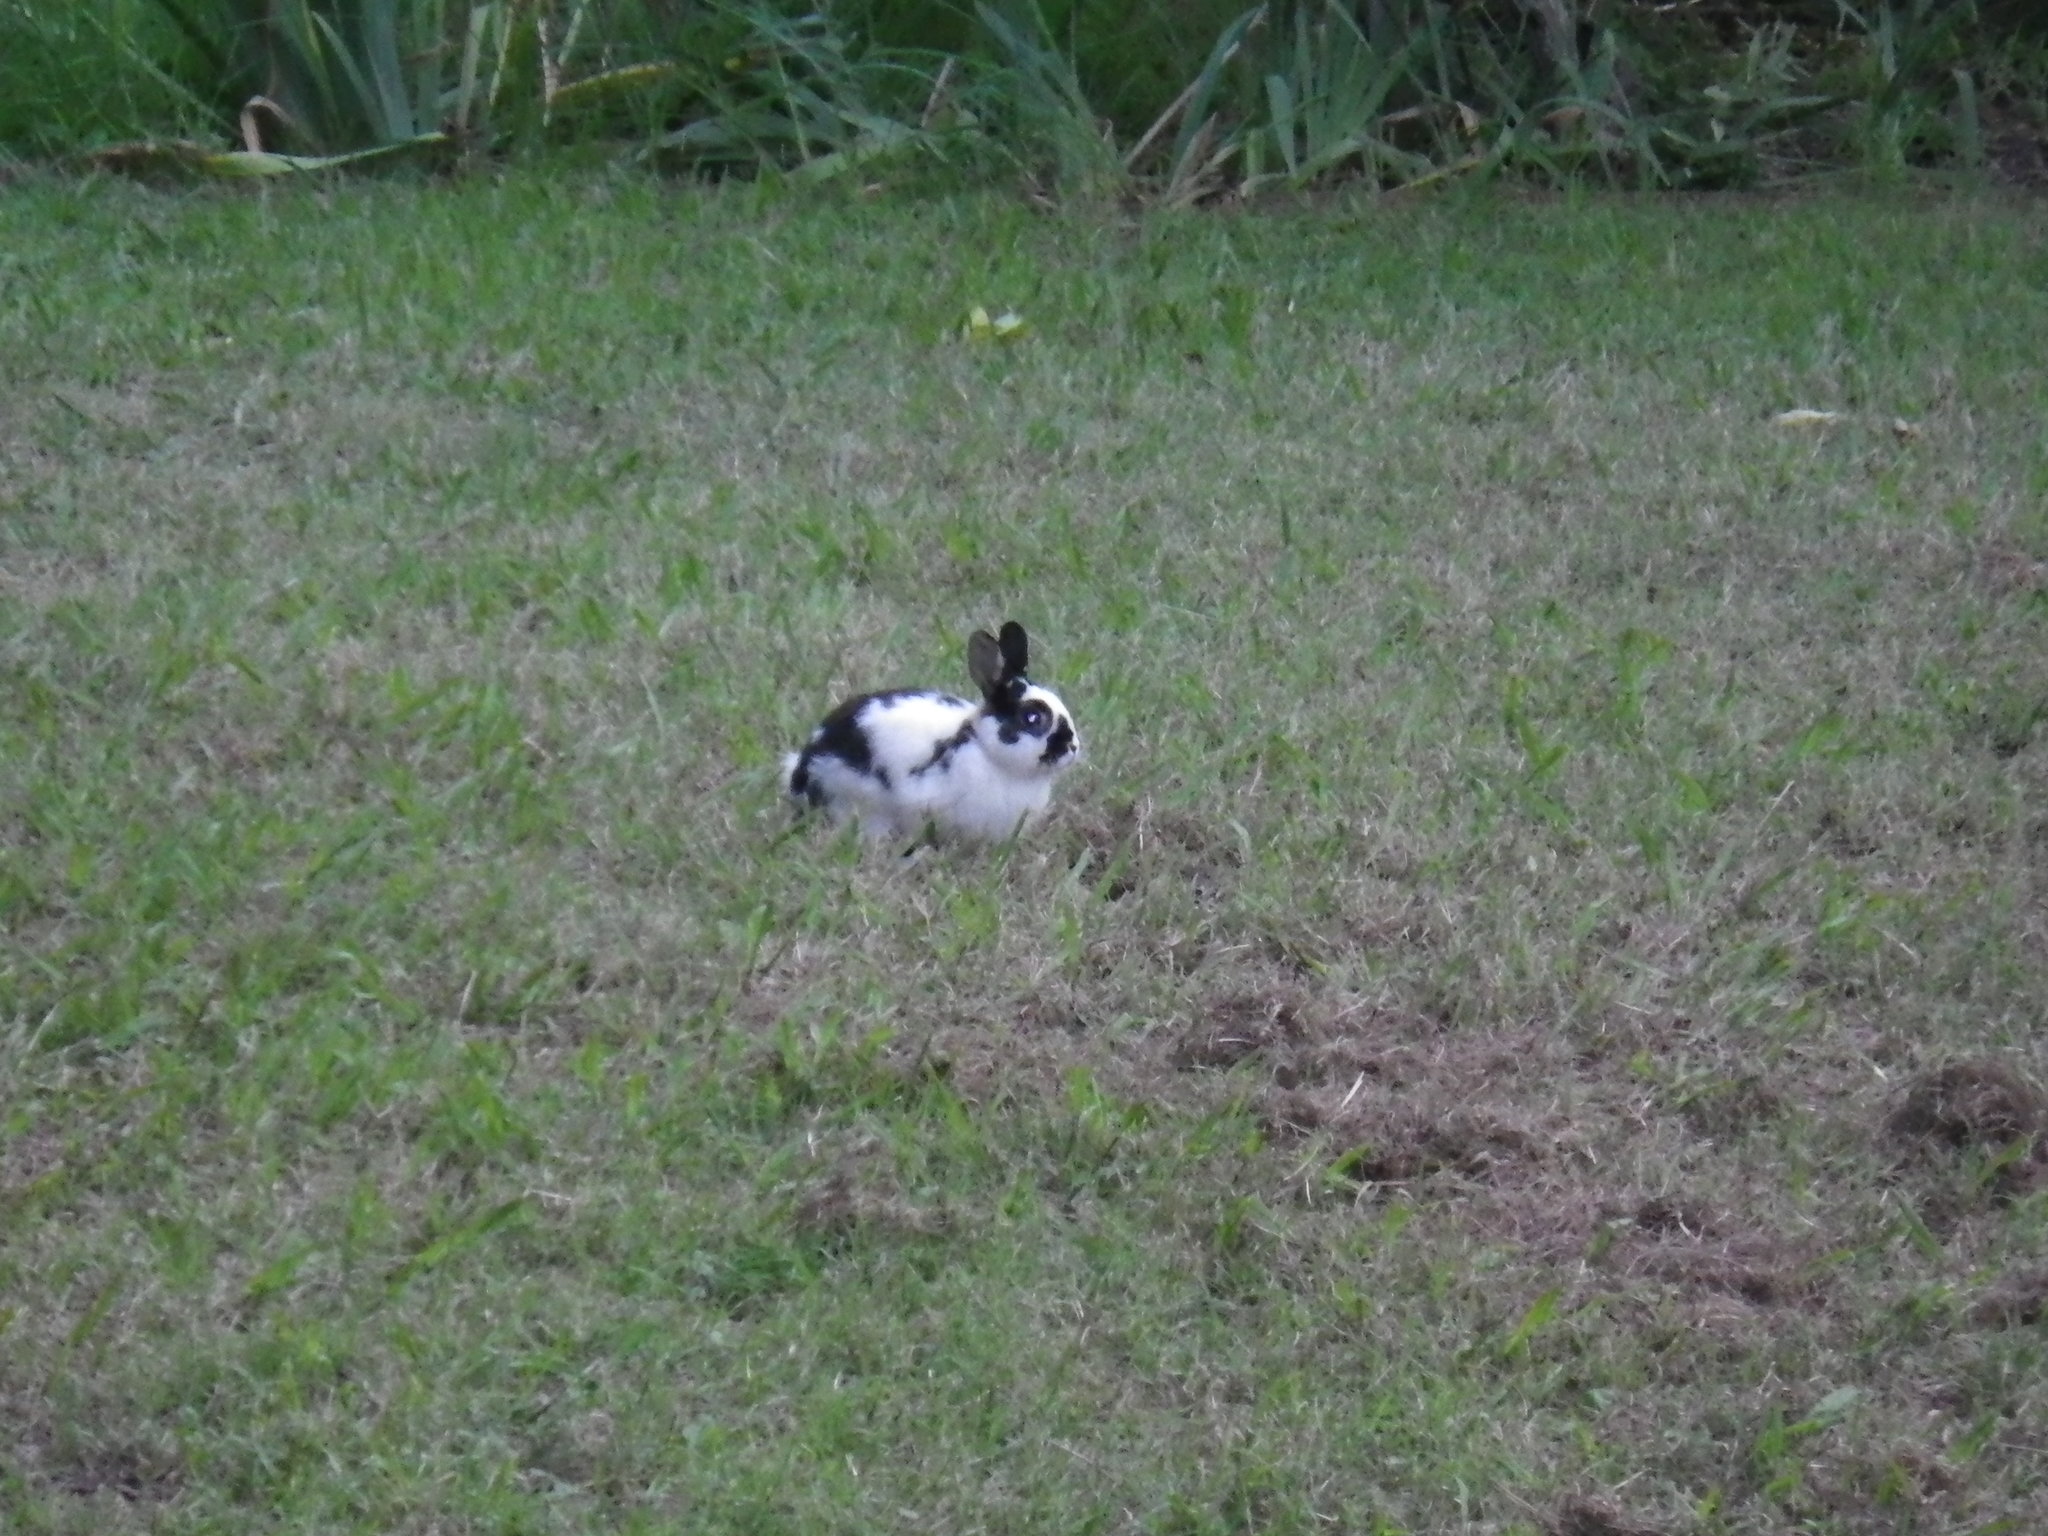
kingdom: Animalia
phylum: Chordata
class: Mammalia
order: Lagomorpha
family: Leporidae
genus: Oryctolagus
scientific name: Oryctolagus cuniculus
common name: European rabbit
